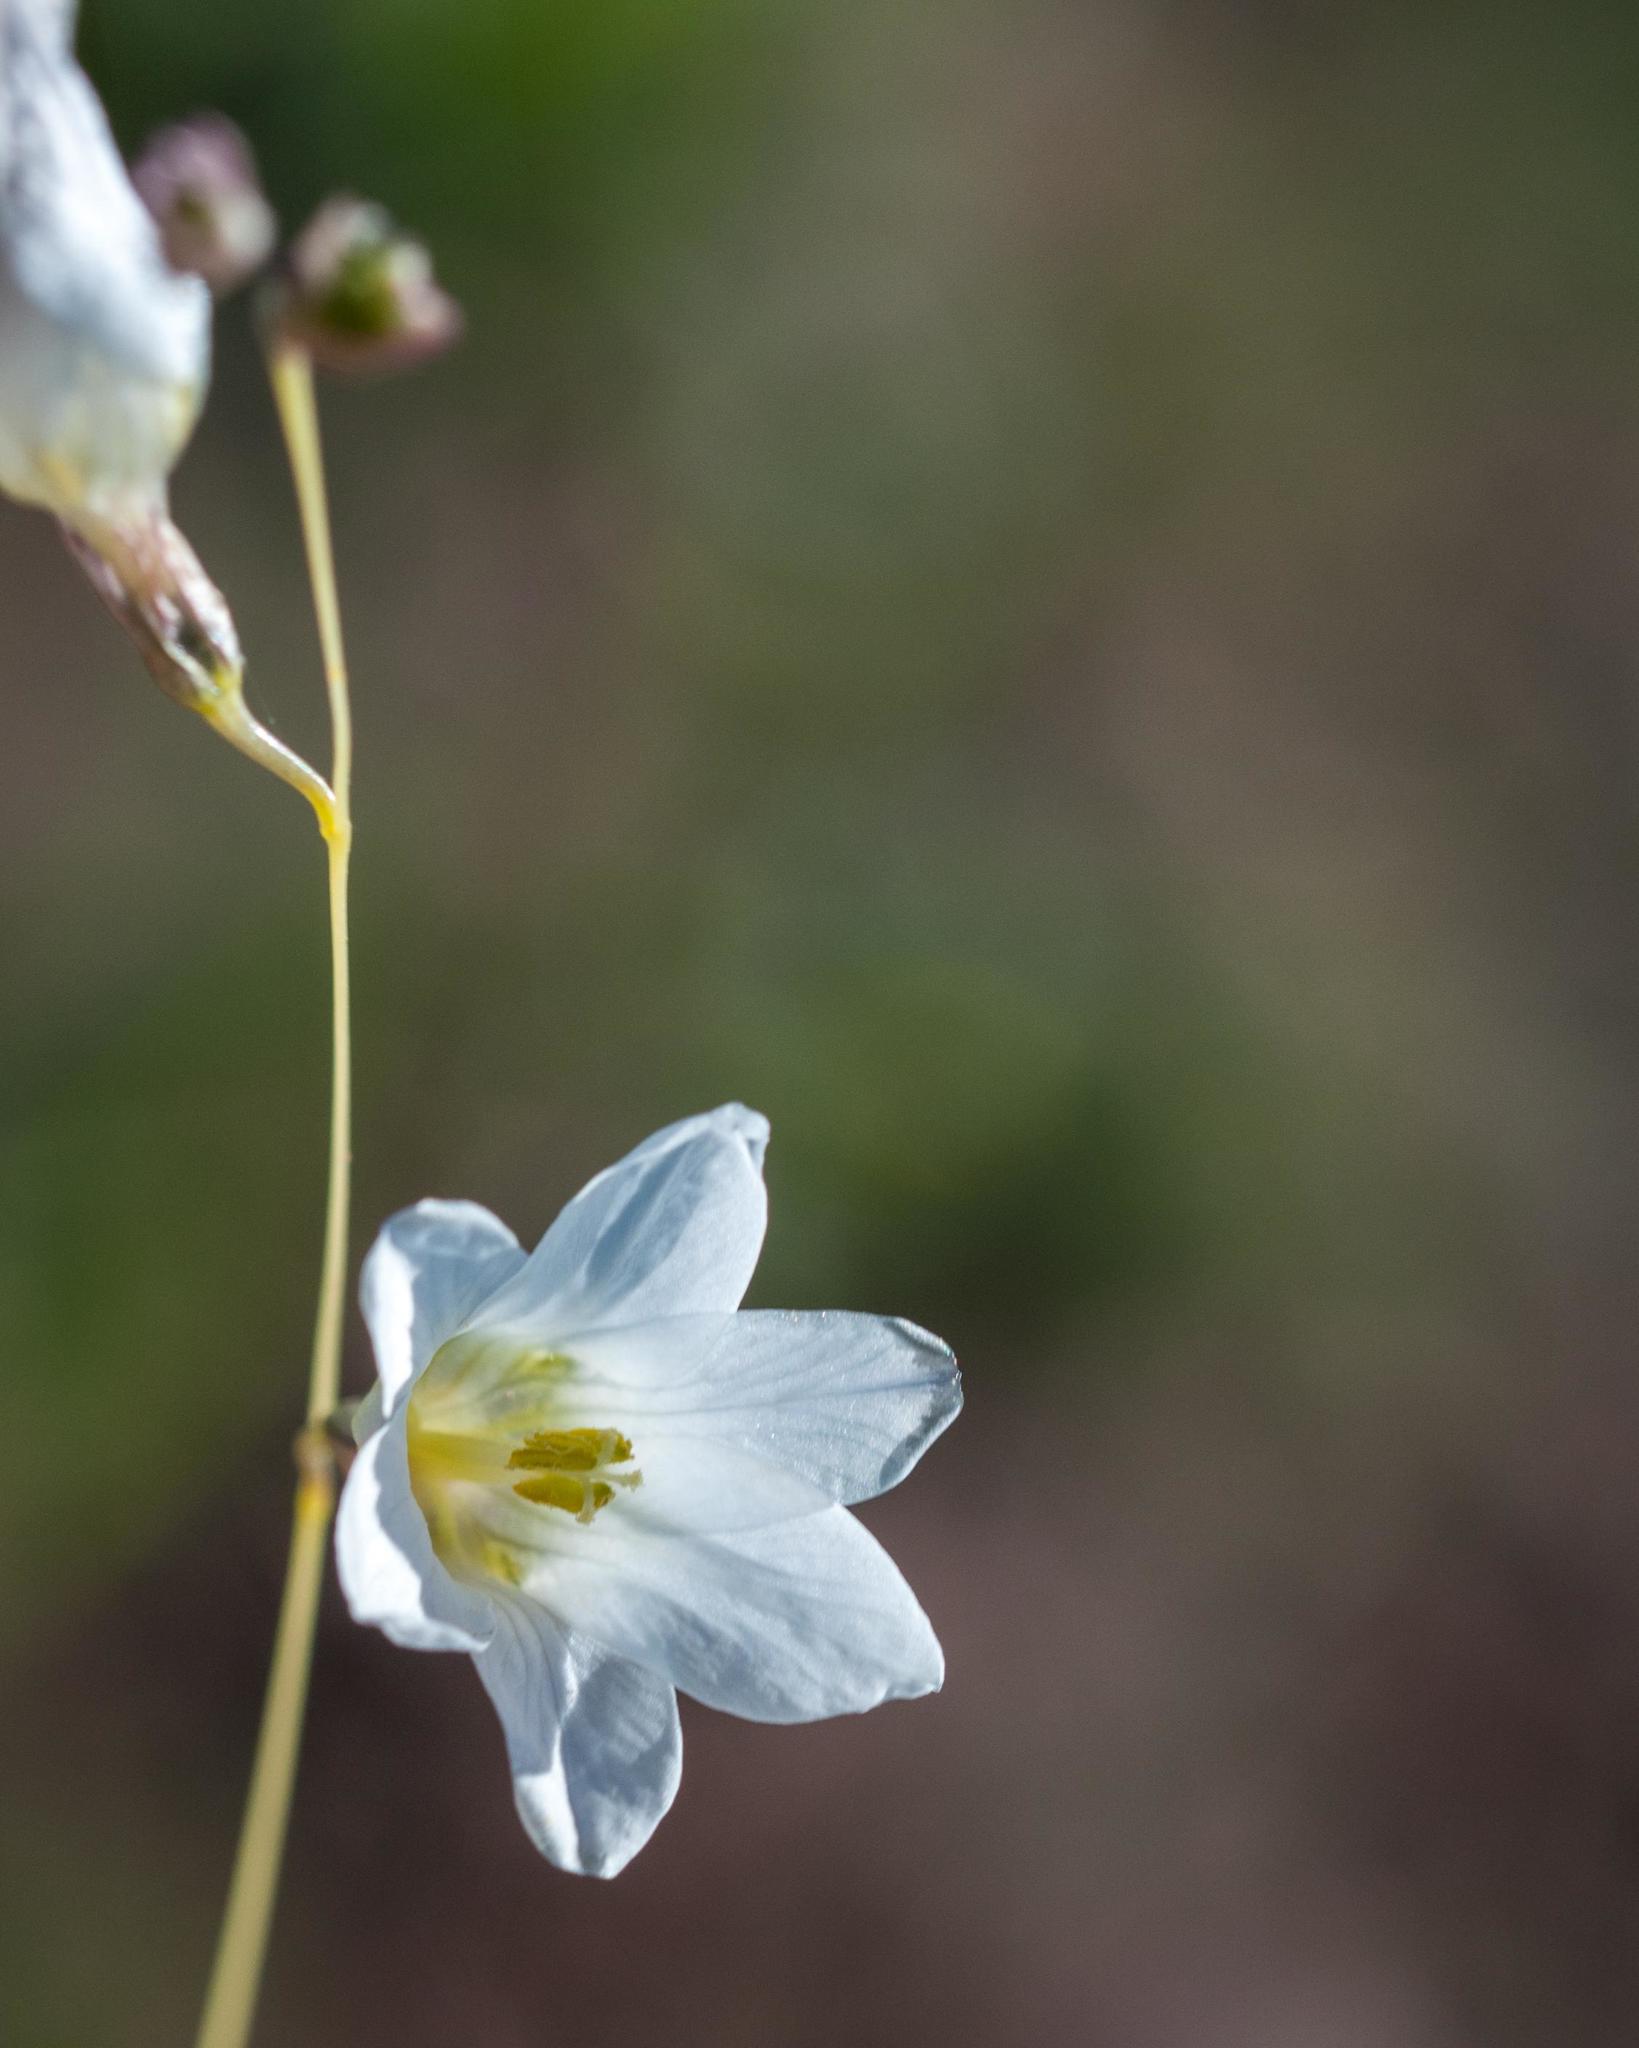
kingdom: Plantae
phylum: Tracheophyta
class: Liliopsida
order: Asparagales
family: Iridaceae
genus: Ixia
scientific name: Ixia rapunculoides
